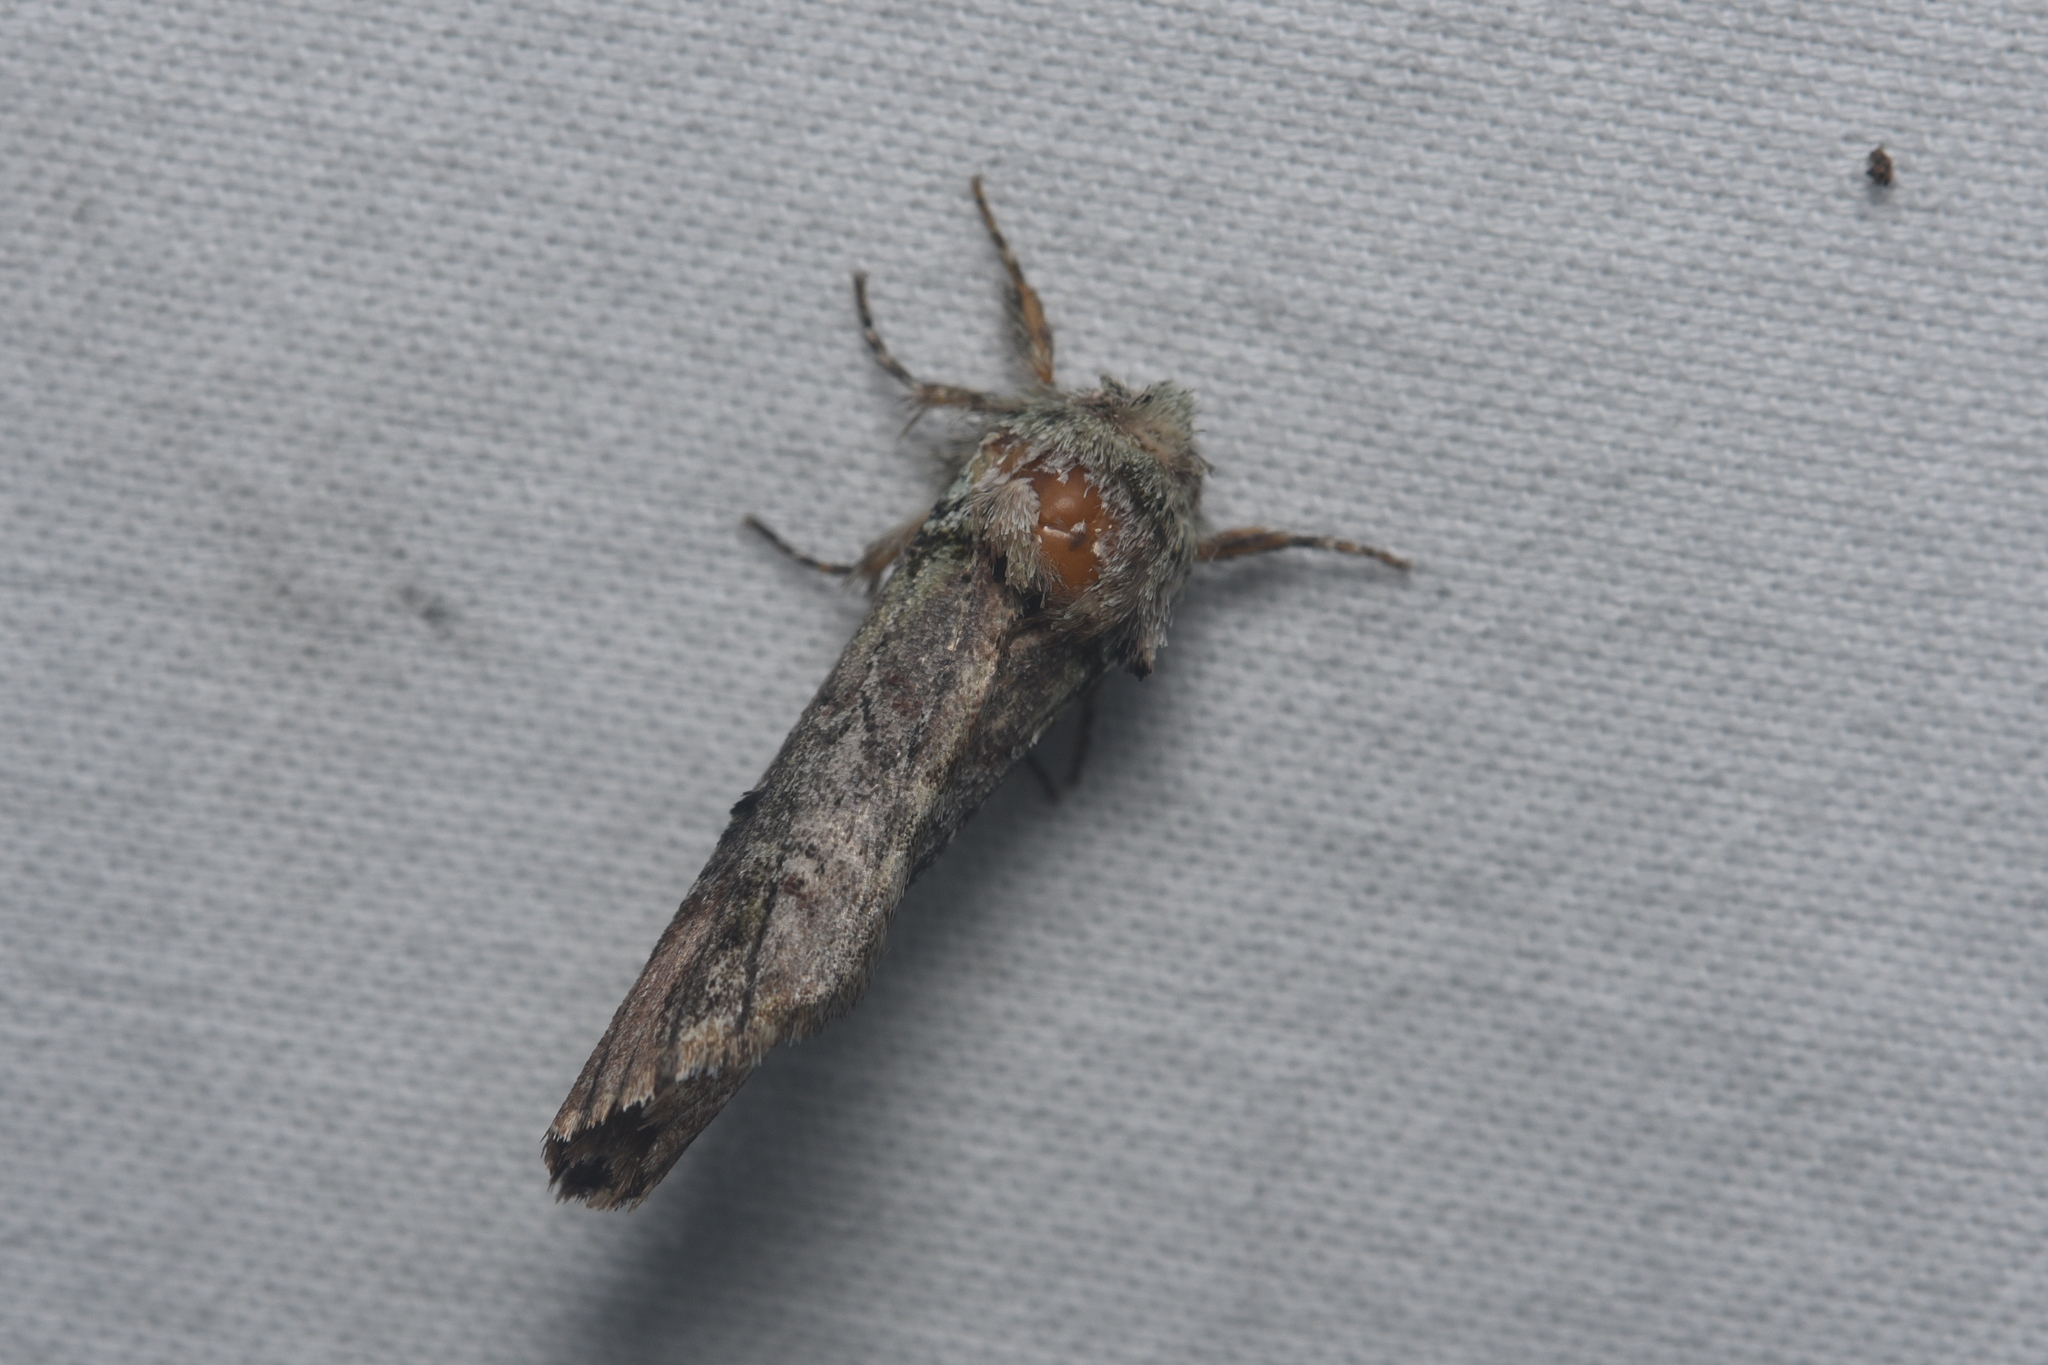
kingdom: Animalia
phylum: Arthropoda
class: Insecta
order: Lepidoptera
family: Notodontidae
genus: Schizura
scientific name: Schizura
